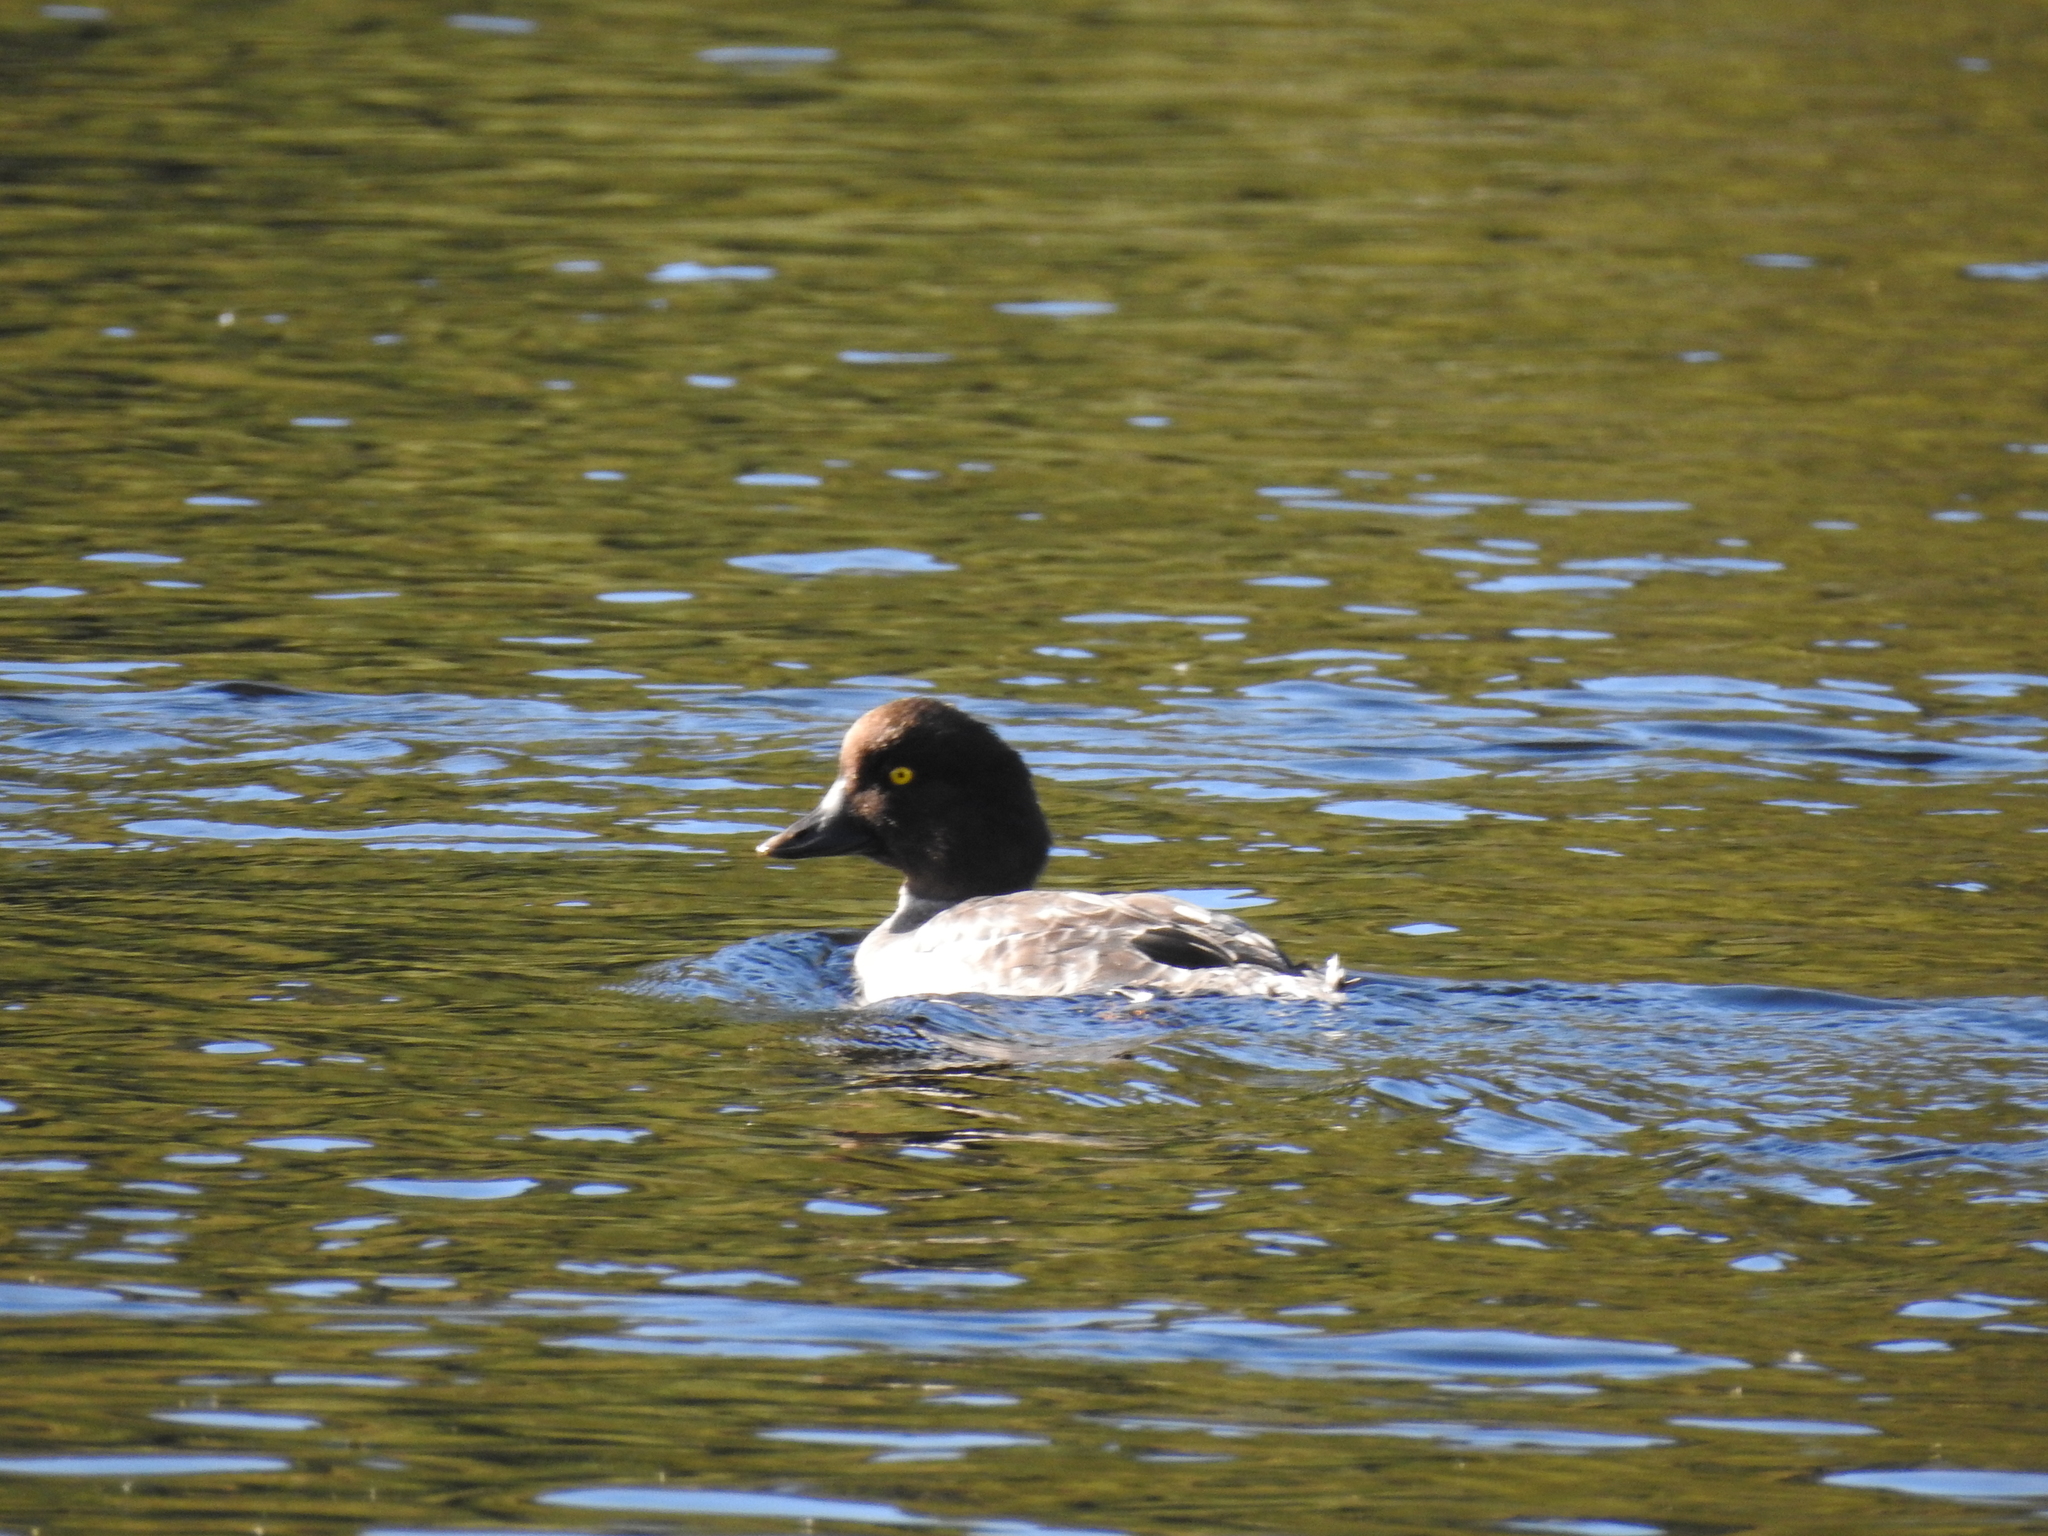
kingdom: Animalia
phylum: Chordata
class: Aves
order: Anseriformes
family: Anatidae
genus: Bucephala
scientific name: Bucephala clangula
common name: Common goldeneye
